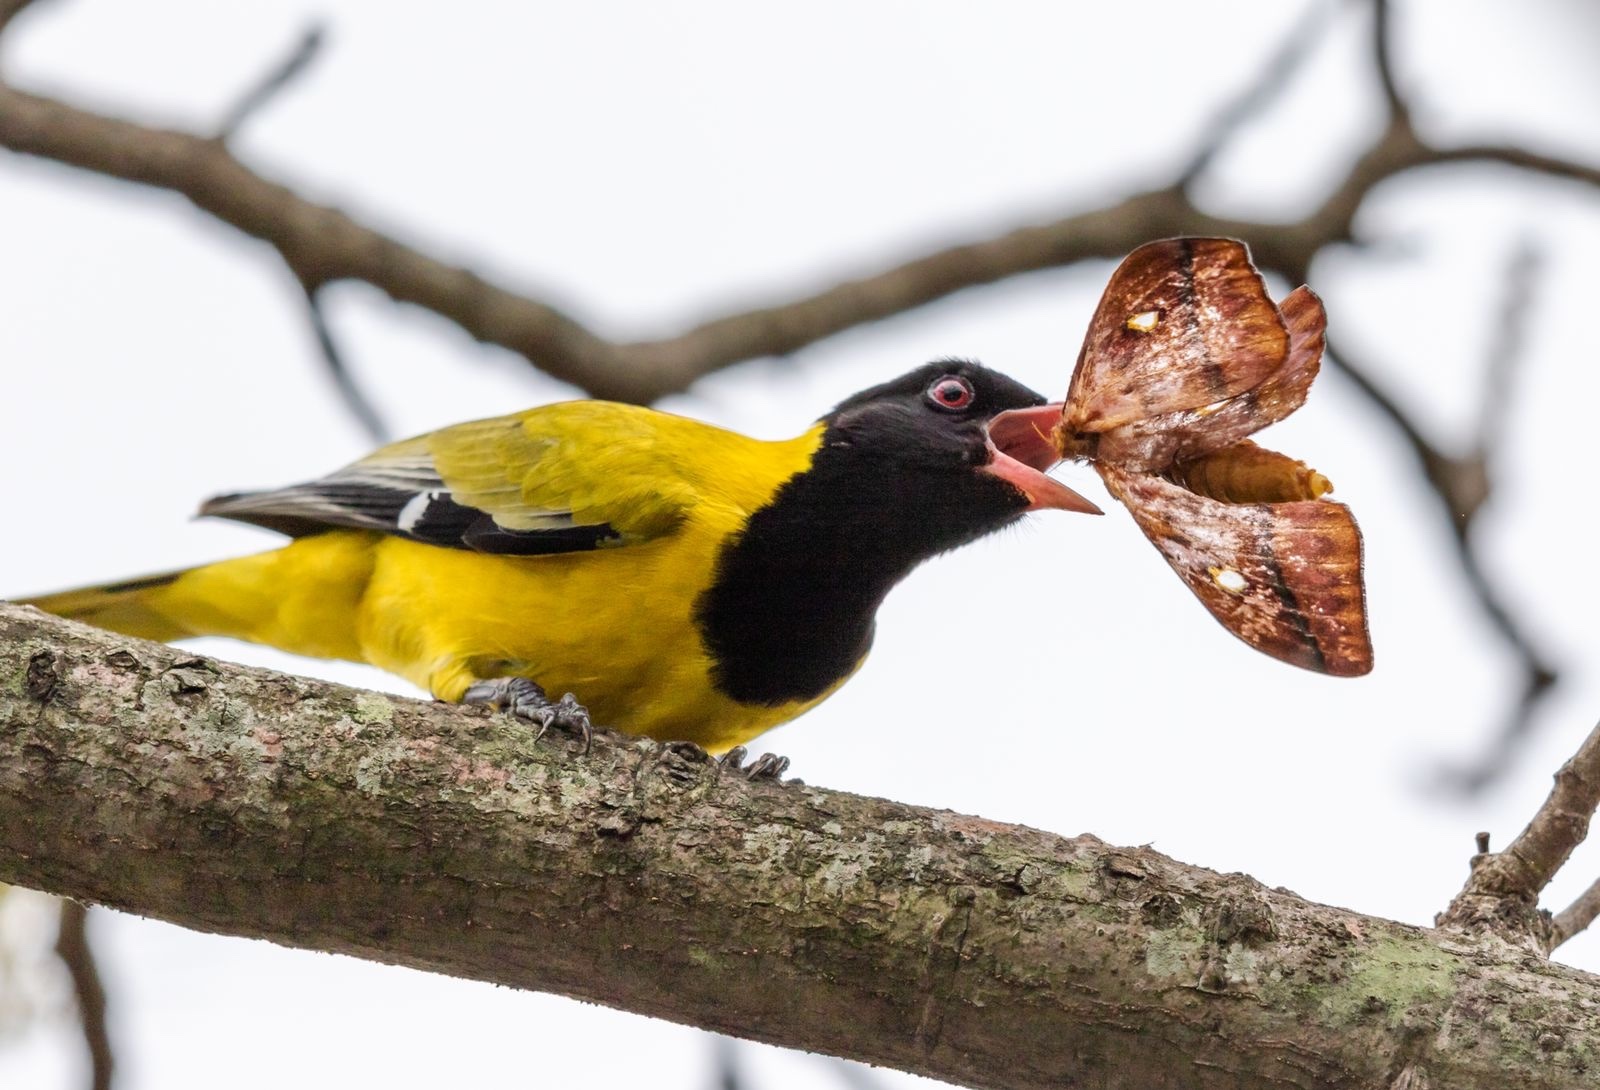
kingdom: Animalia
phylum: Chordata
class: Aves
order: Passeriformes
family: Oriolidae
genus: Oriolus
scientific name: Oriolus larvatus
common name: Black-headed oriole
